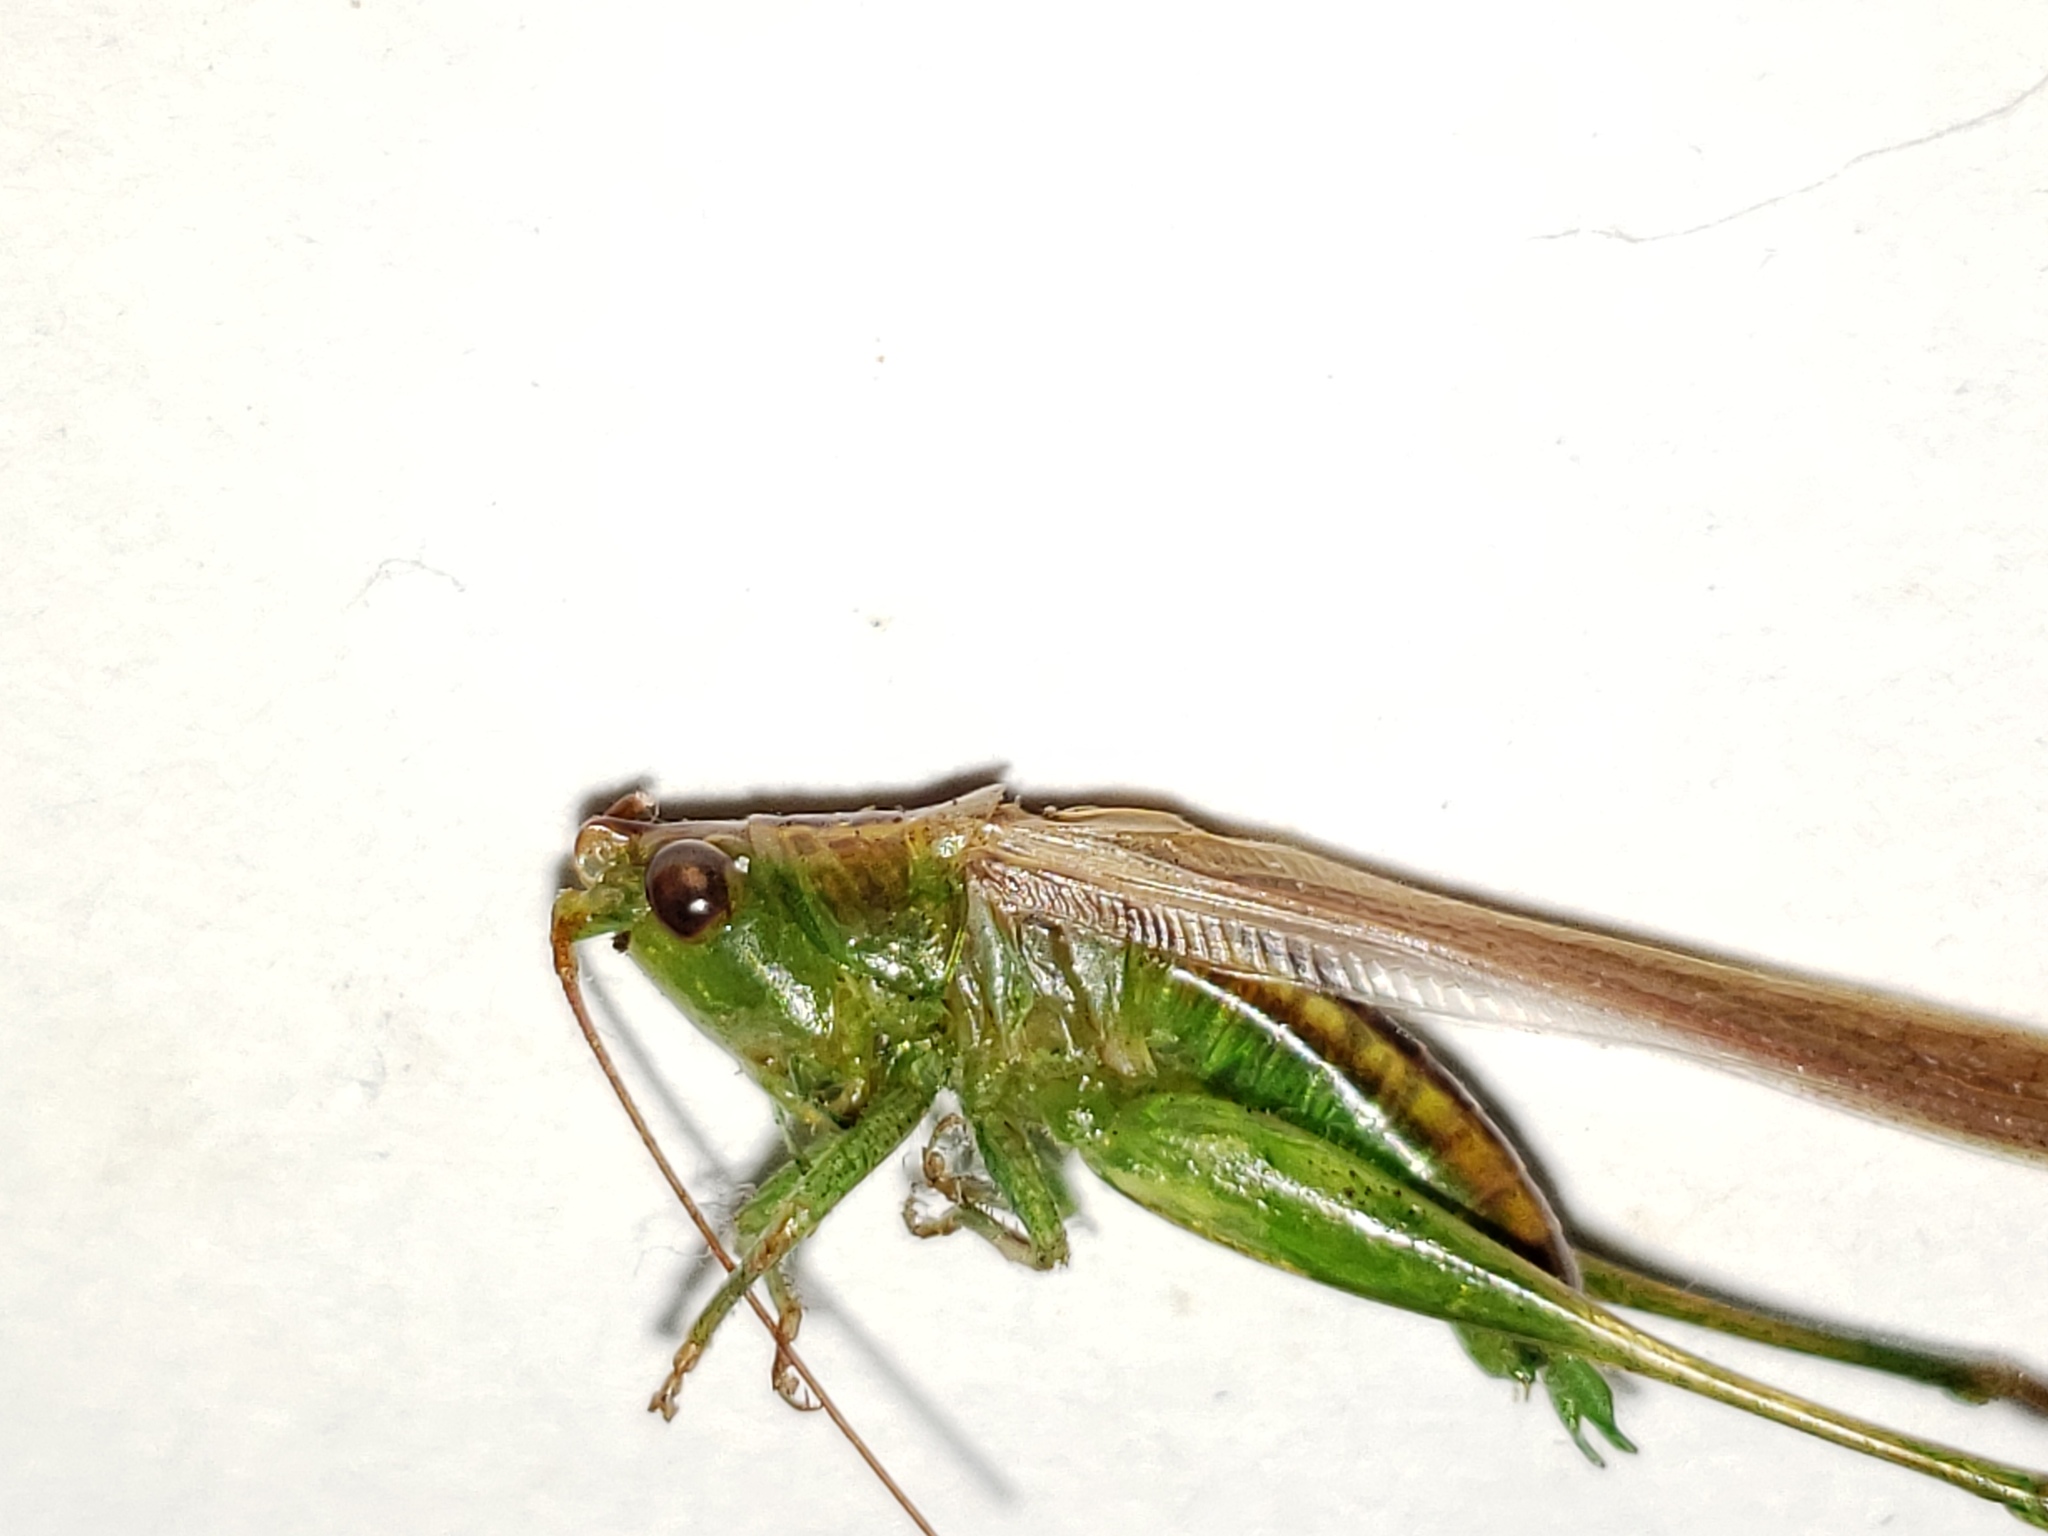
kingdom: Animalia
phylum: Arthropoda
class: Insecta
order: Orthoptera
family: Tettigoniidae
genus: Conocephalus
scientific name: Conocephalus gracillimus
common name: Graceful meadow katydid
